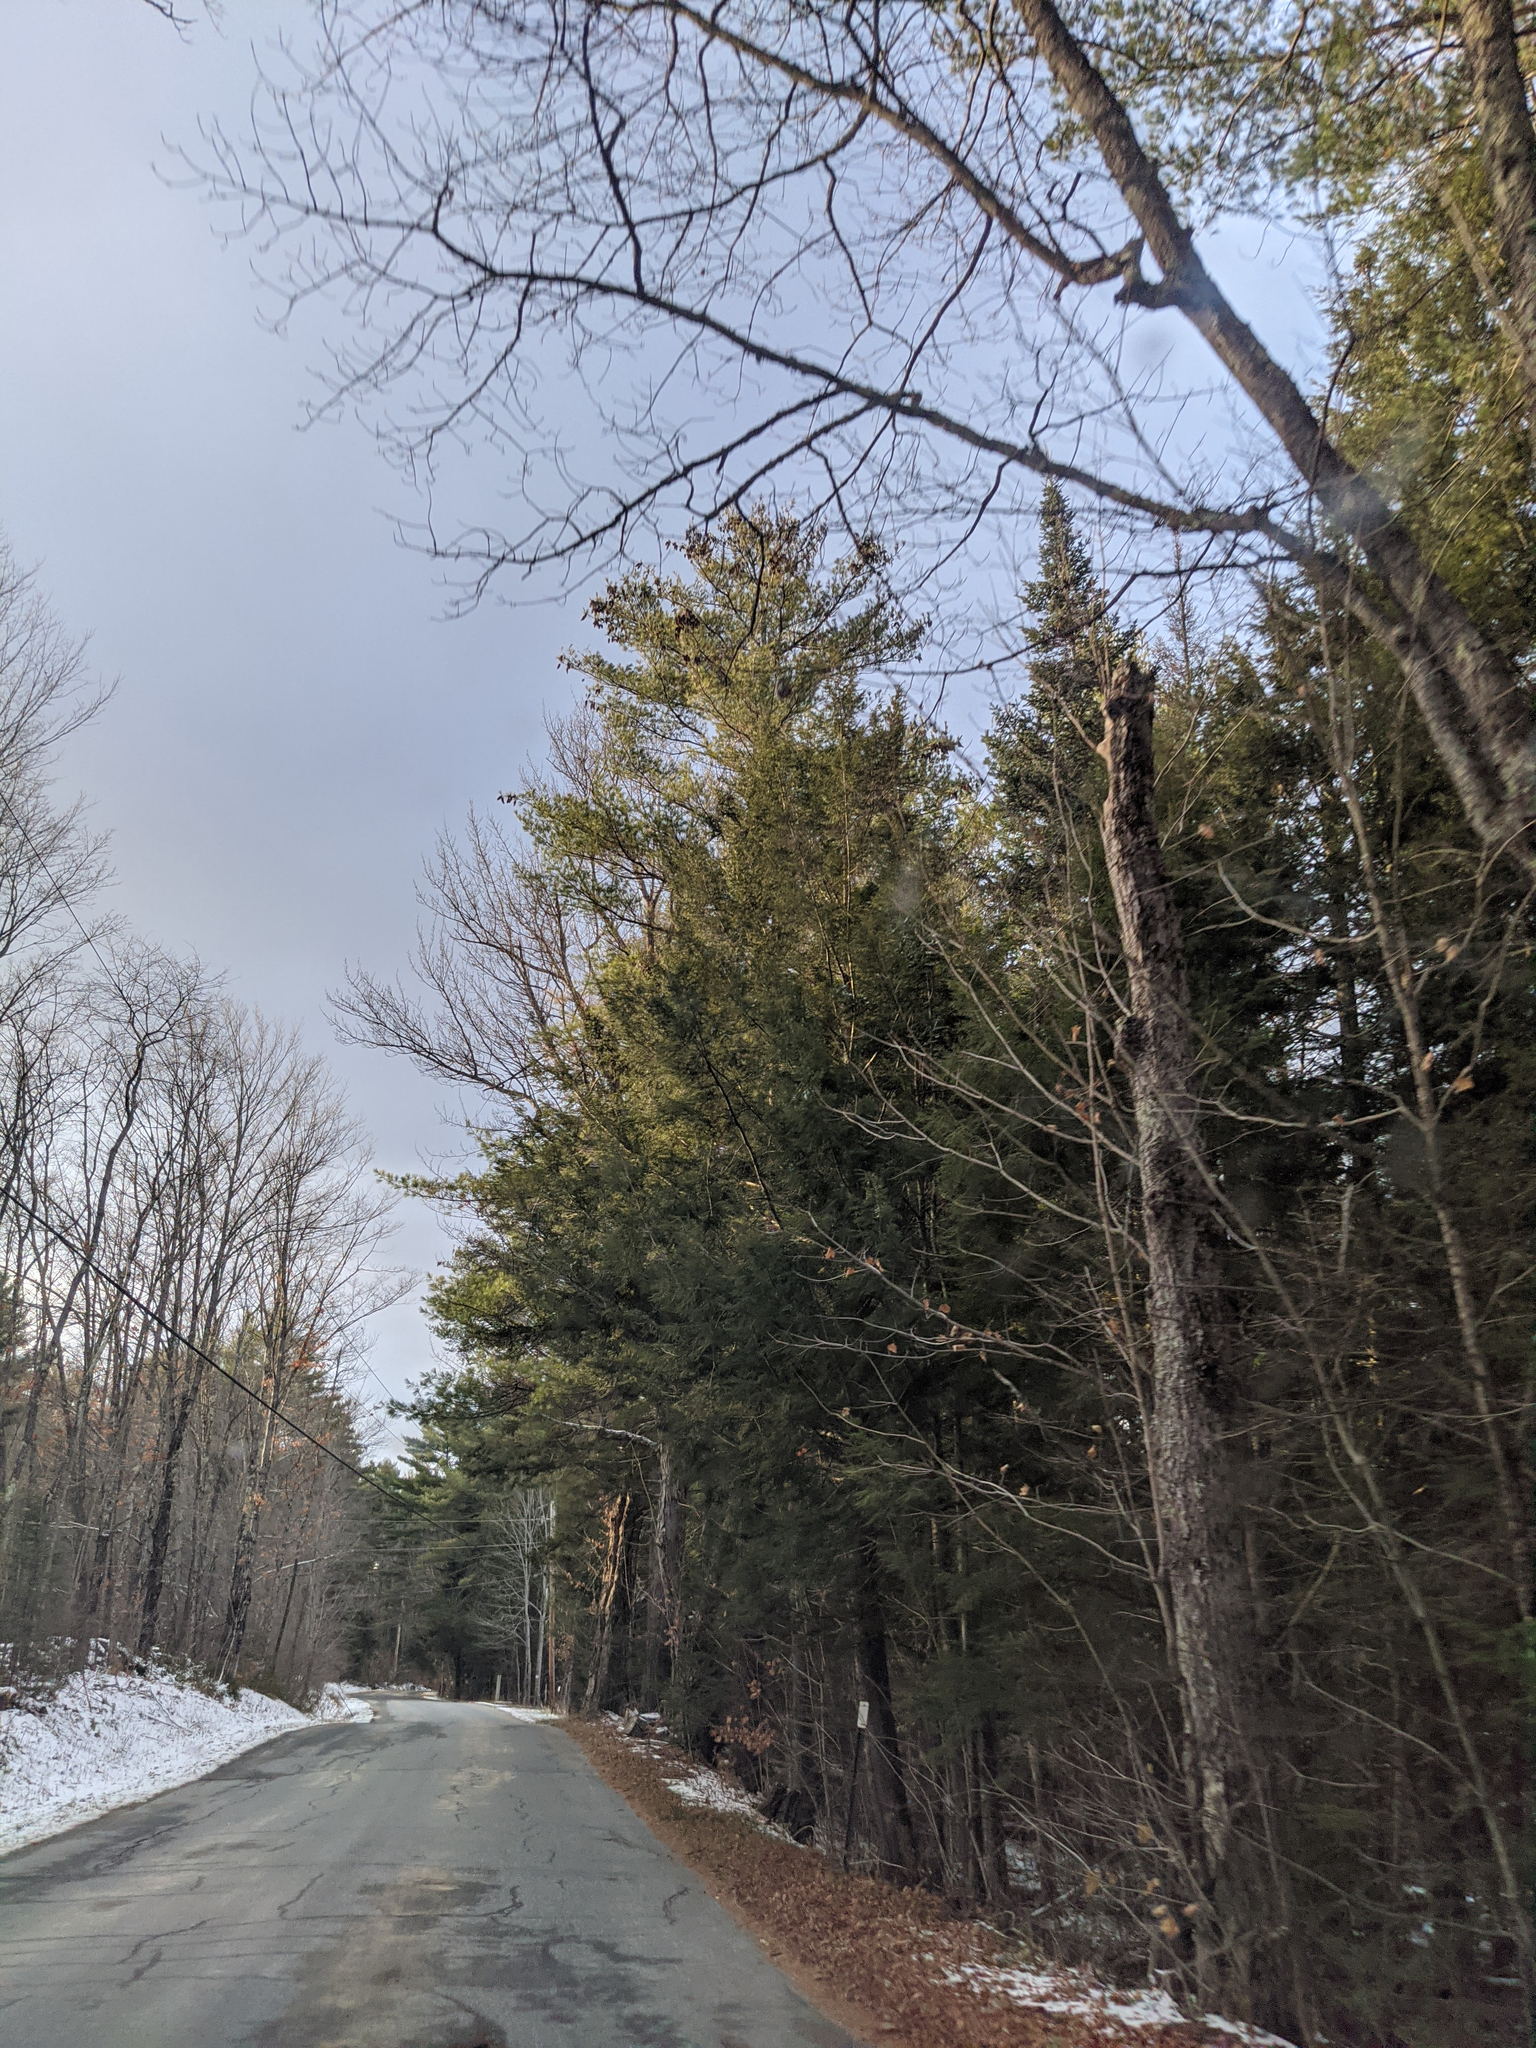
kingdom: Plantae
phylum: Tracheophyta
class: Pinopsida
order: Pinales
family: Pinaceae
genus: Pinus
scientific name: Pinus strobus
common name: Weymouth pine
